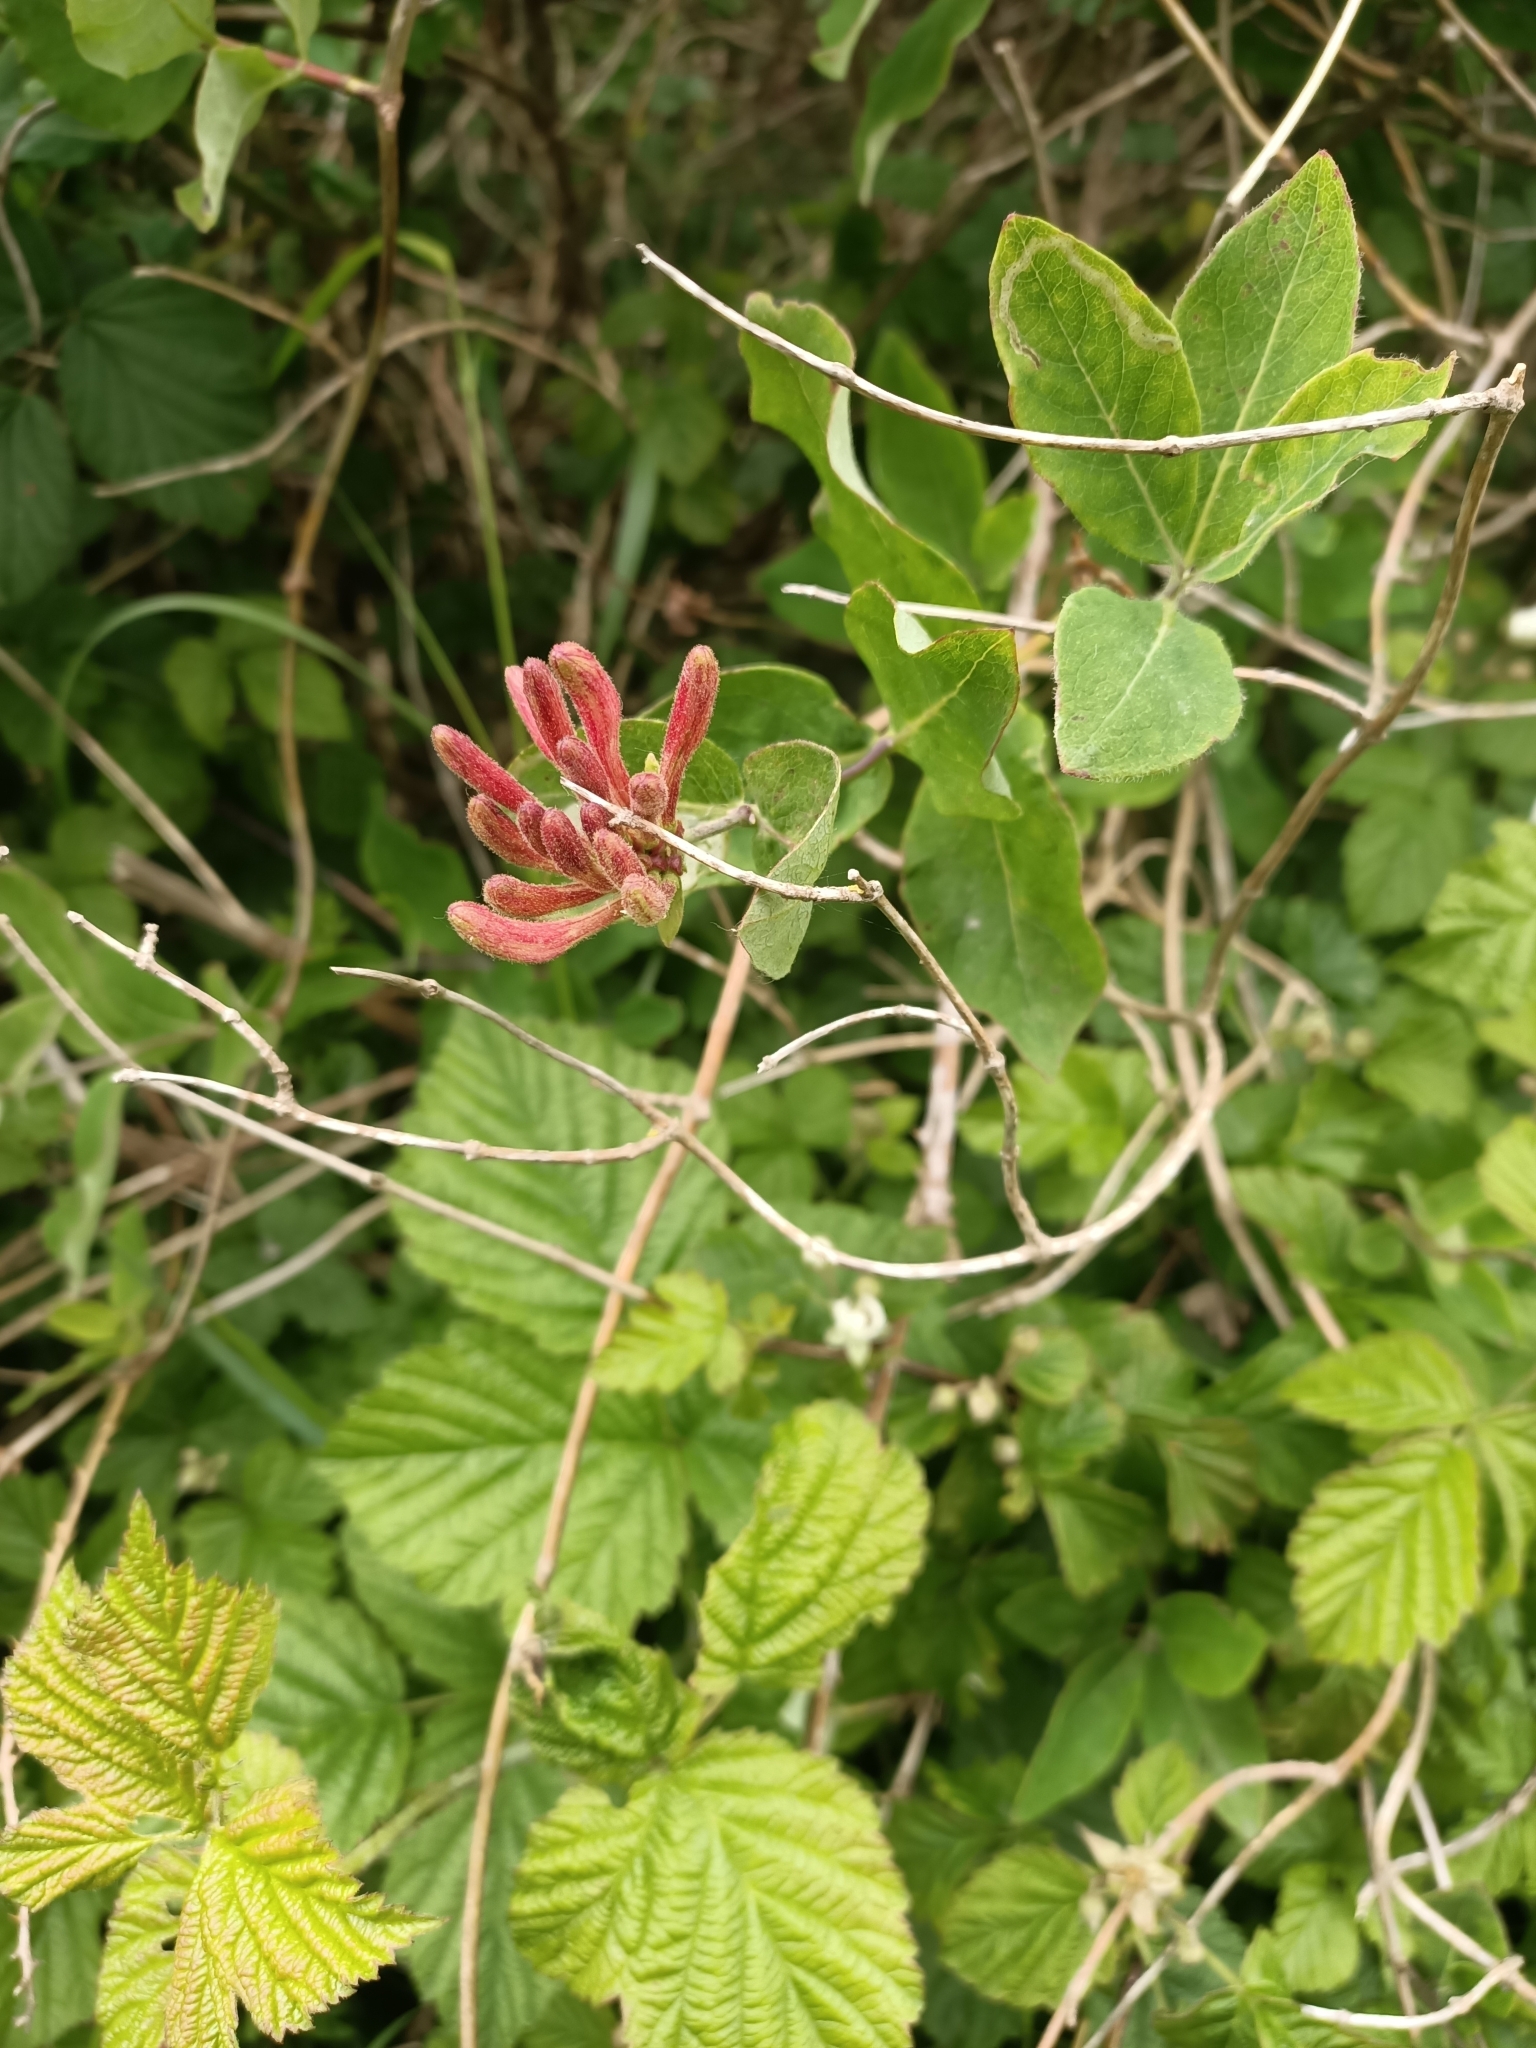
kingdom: Plantae
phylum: Tracheophyta
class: Magnoliopsida
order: Dipsacales
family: Caprifoliaceae
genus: Lonicera
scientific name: Lonicera periclymenum
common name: European honeysuckle
